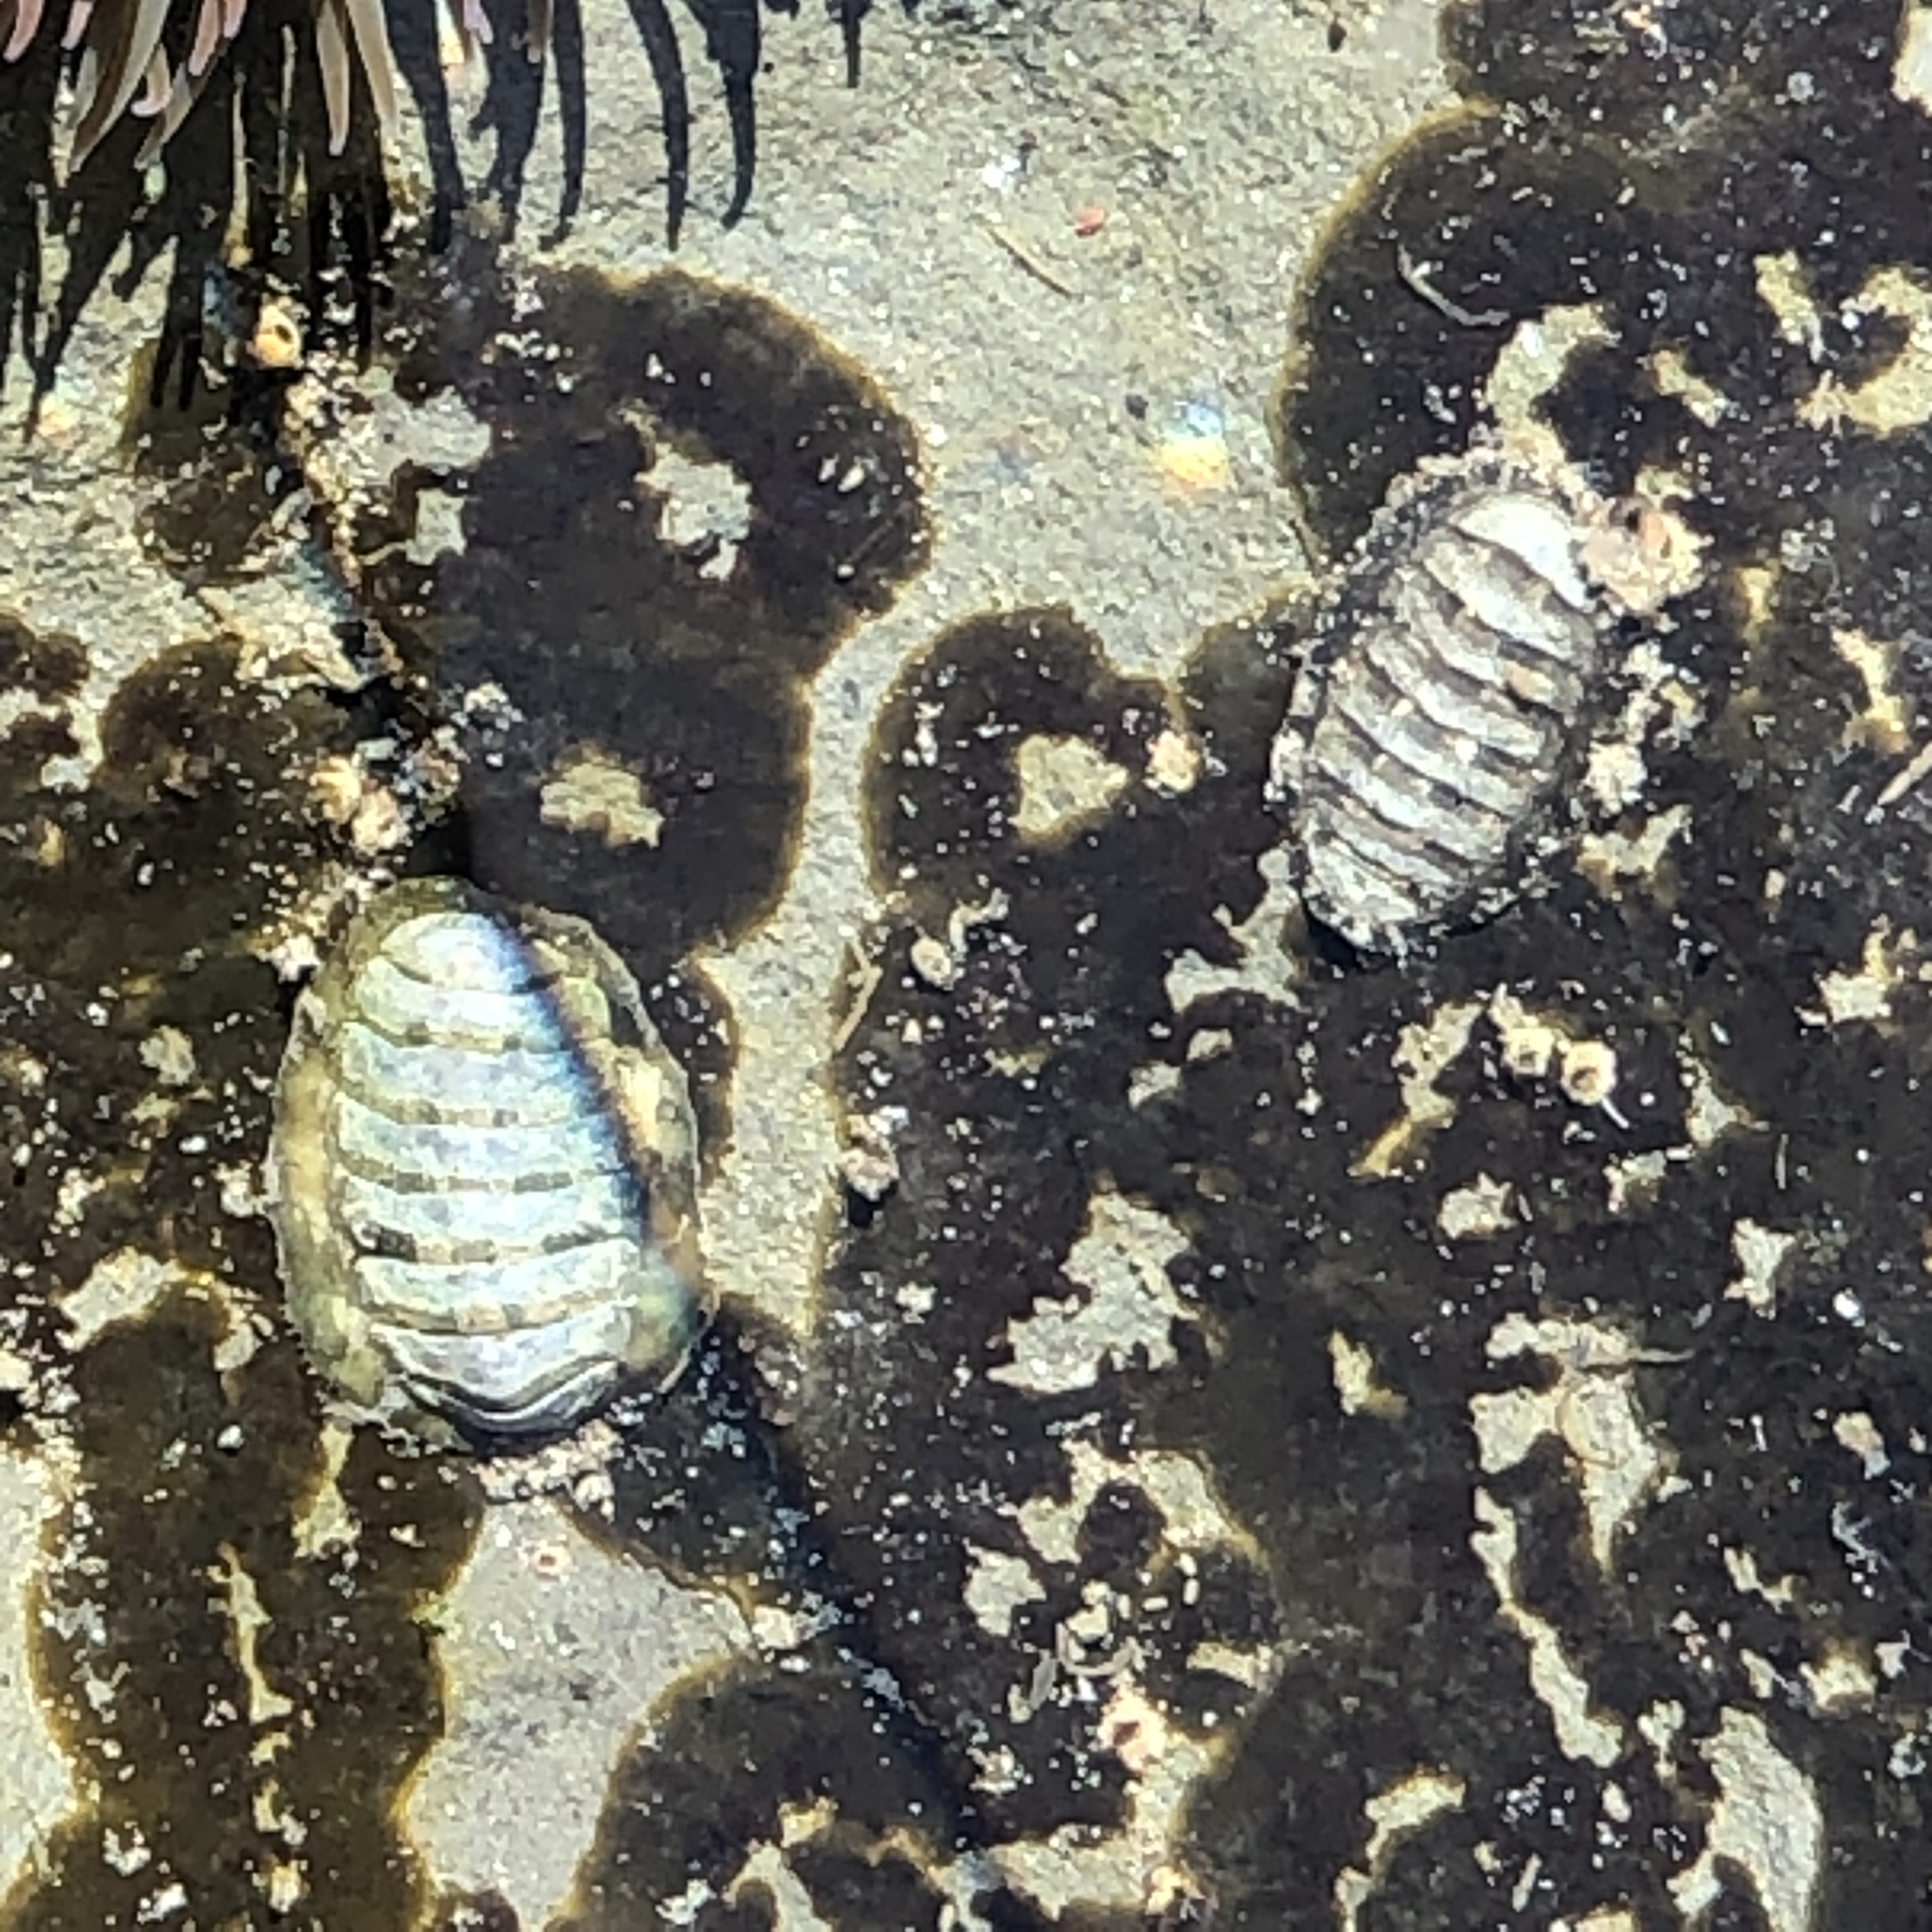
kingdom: Animalia
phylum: Mollusca
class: Polyplacophora
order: Chitonida
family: Tonicellidae
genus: Cyanoplax
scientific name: Cyanoplax hartwegii
